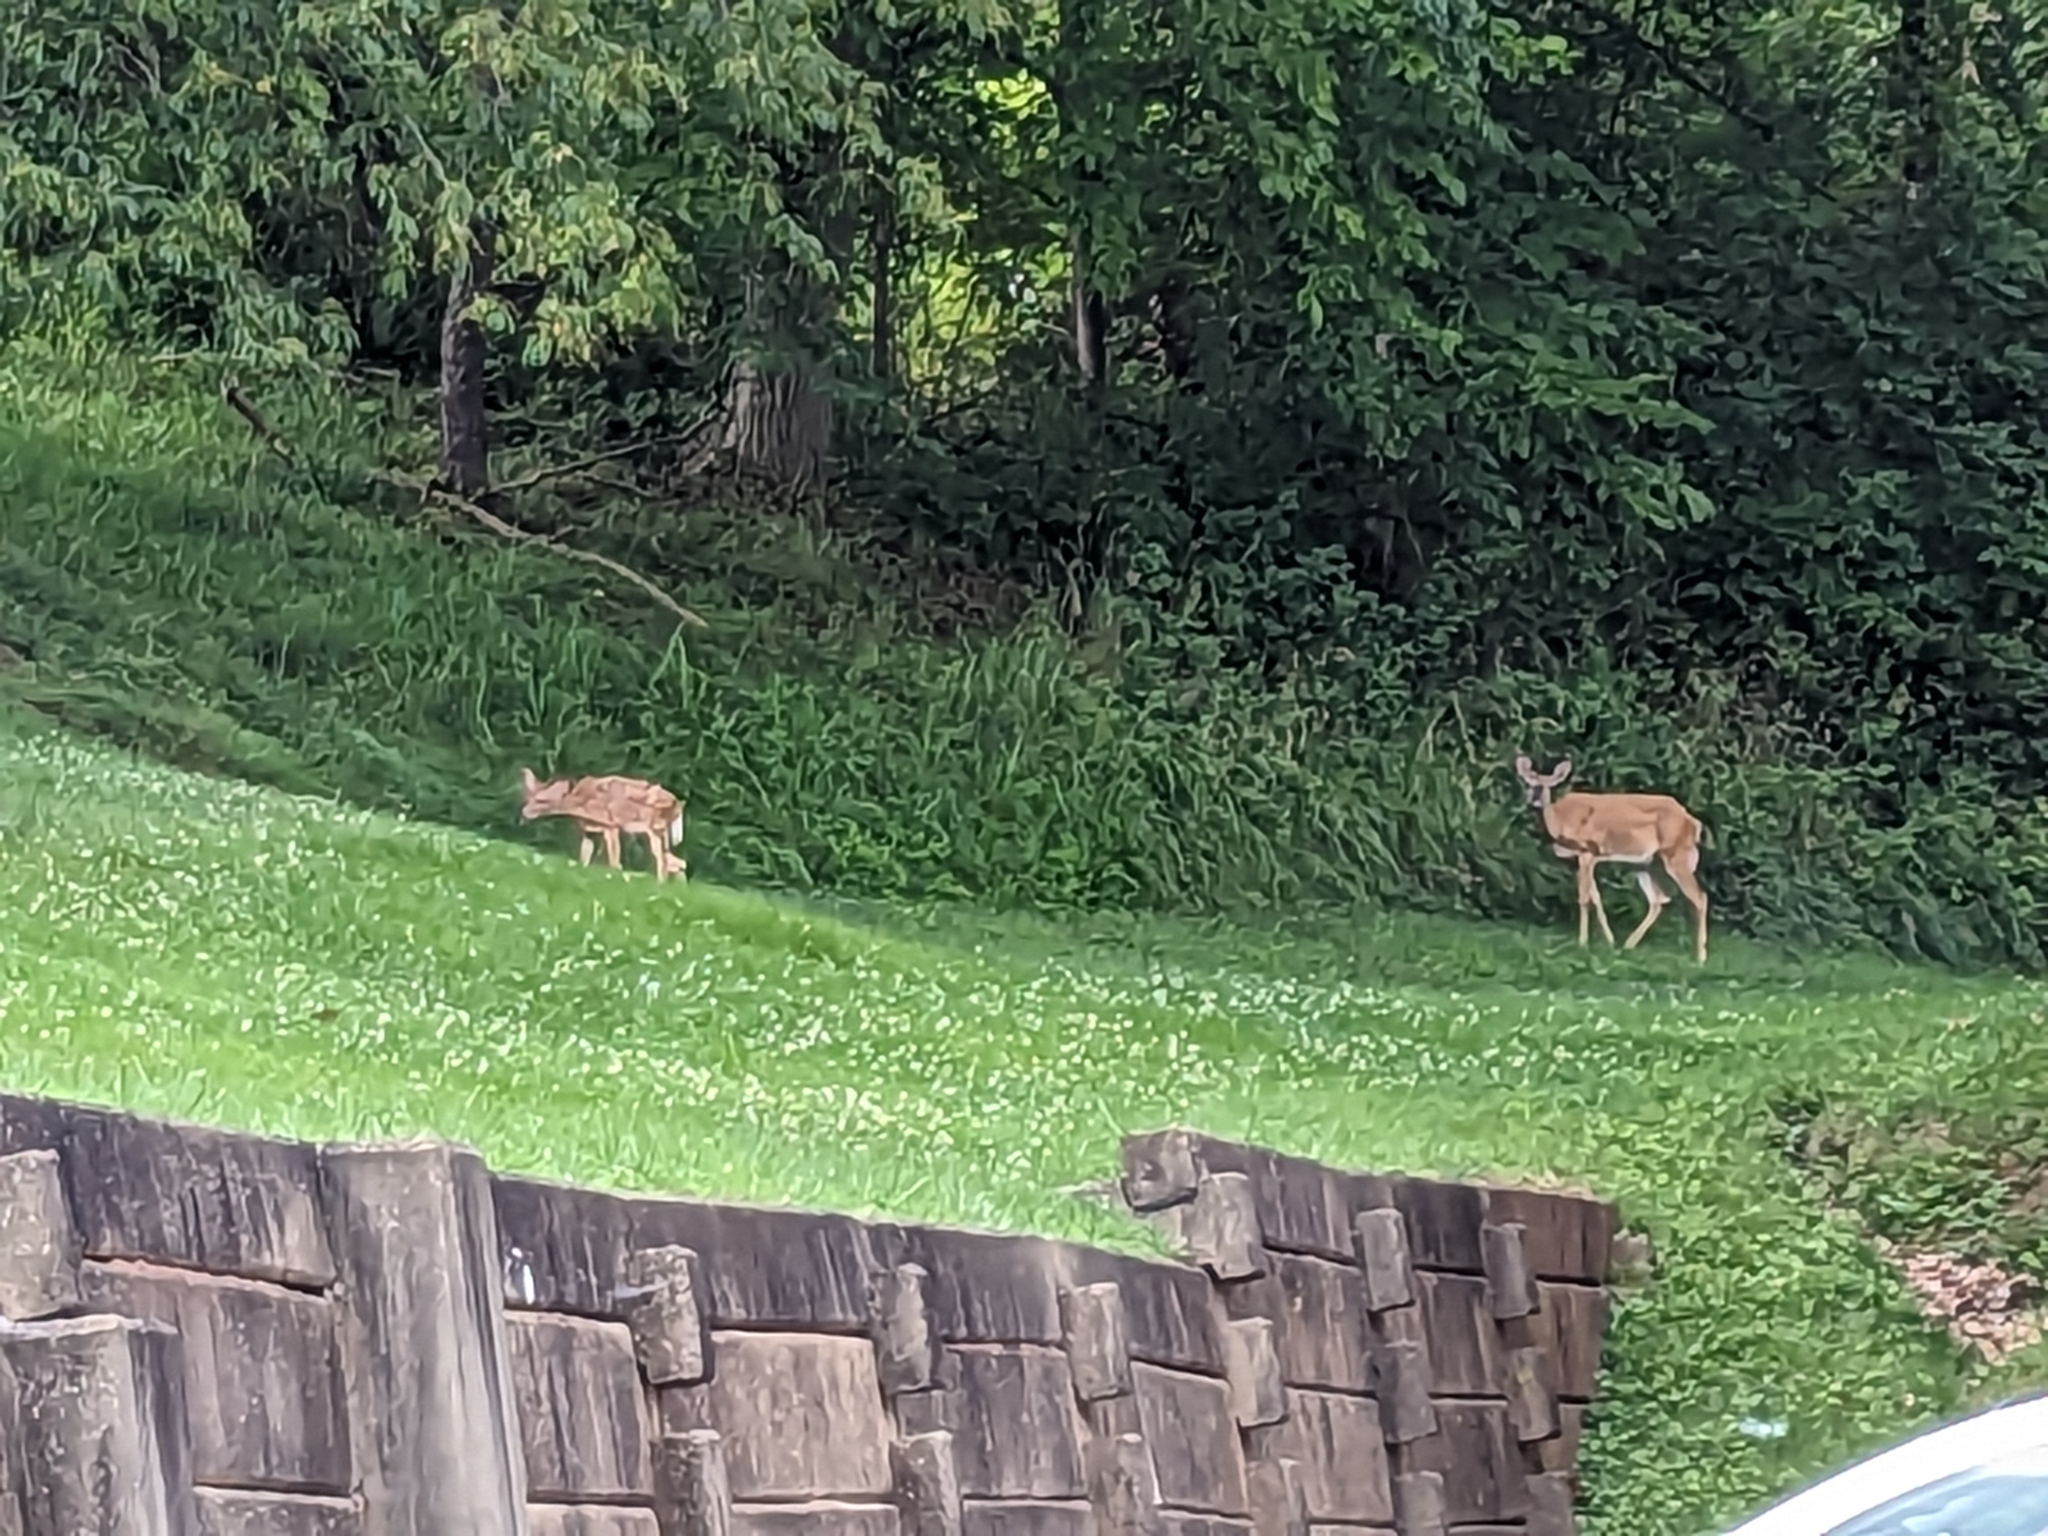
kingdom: Animalia
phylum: Chordata
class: Mammalia
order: Artiodactyla
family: Cervidae
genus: Odocoileus
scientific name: Odocoileus virginianus
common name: White-tailed deer
